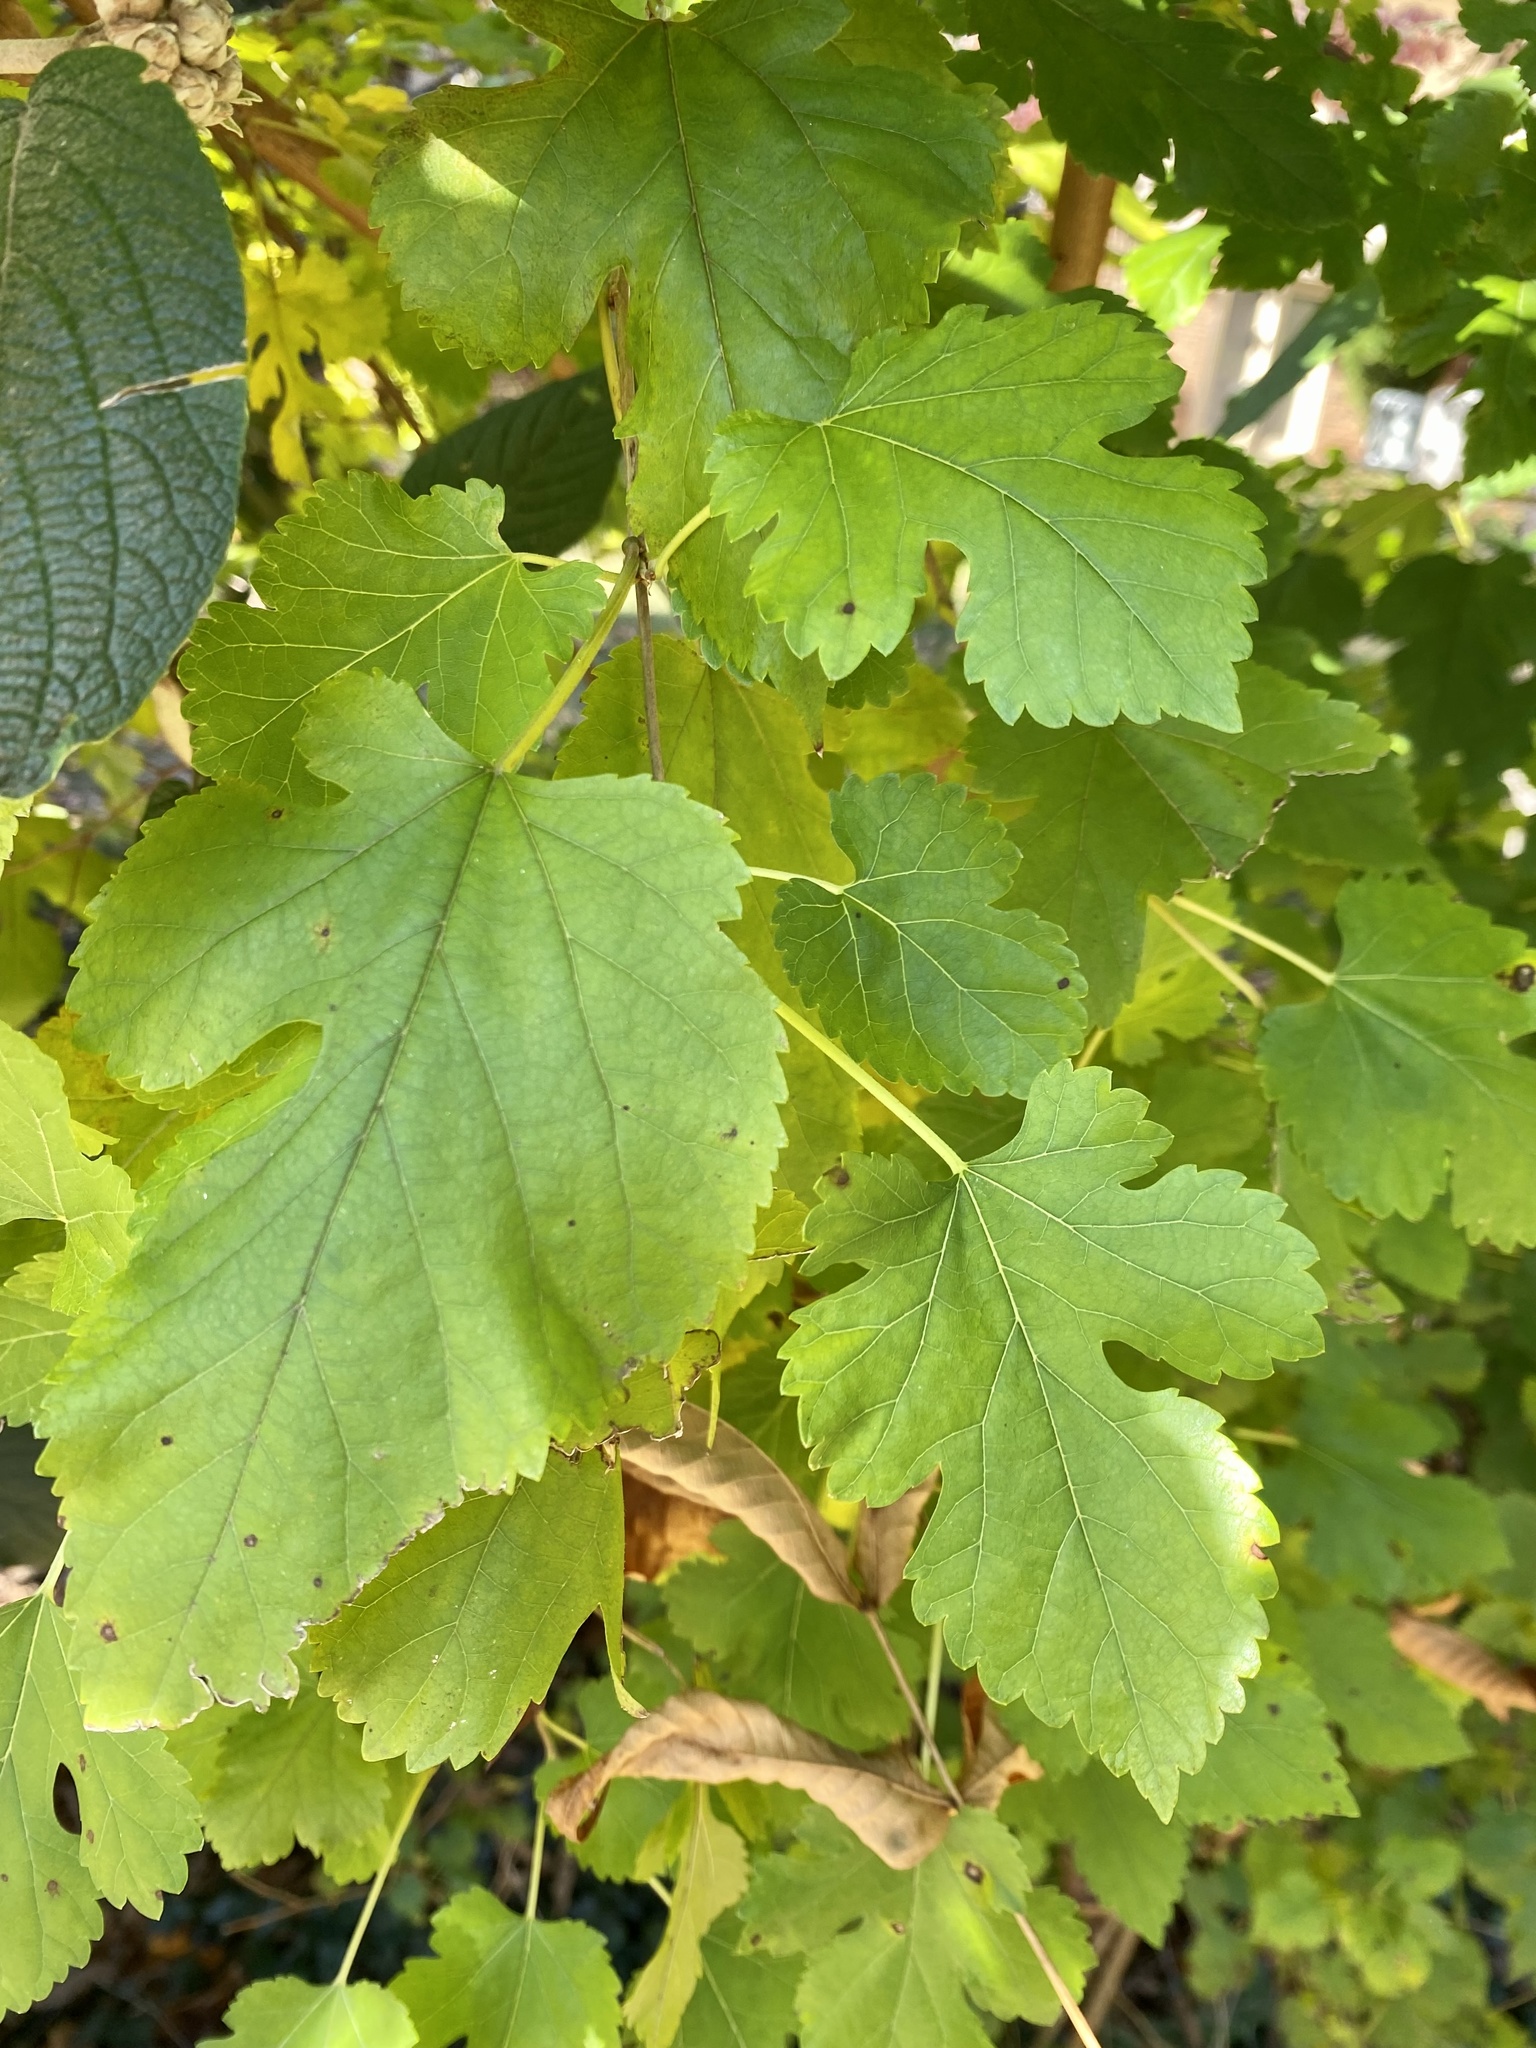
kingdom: Plantae
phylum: Tracheophyta
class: Magnoliopsida
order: Rosales
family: Moraceae
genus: Morus
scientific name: Morus alba
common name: White mulberry
